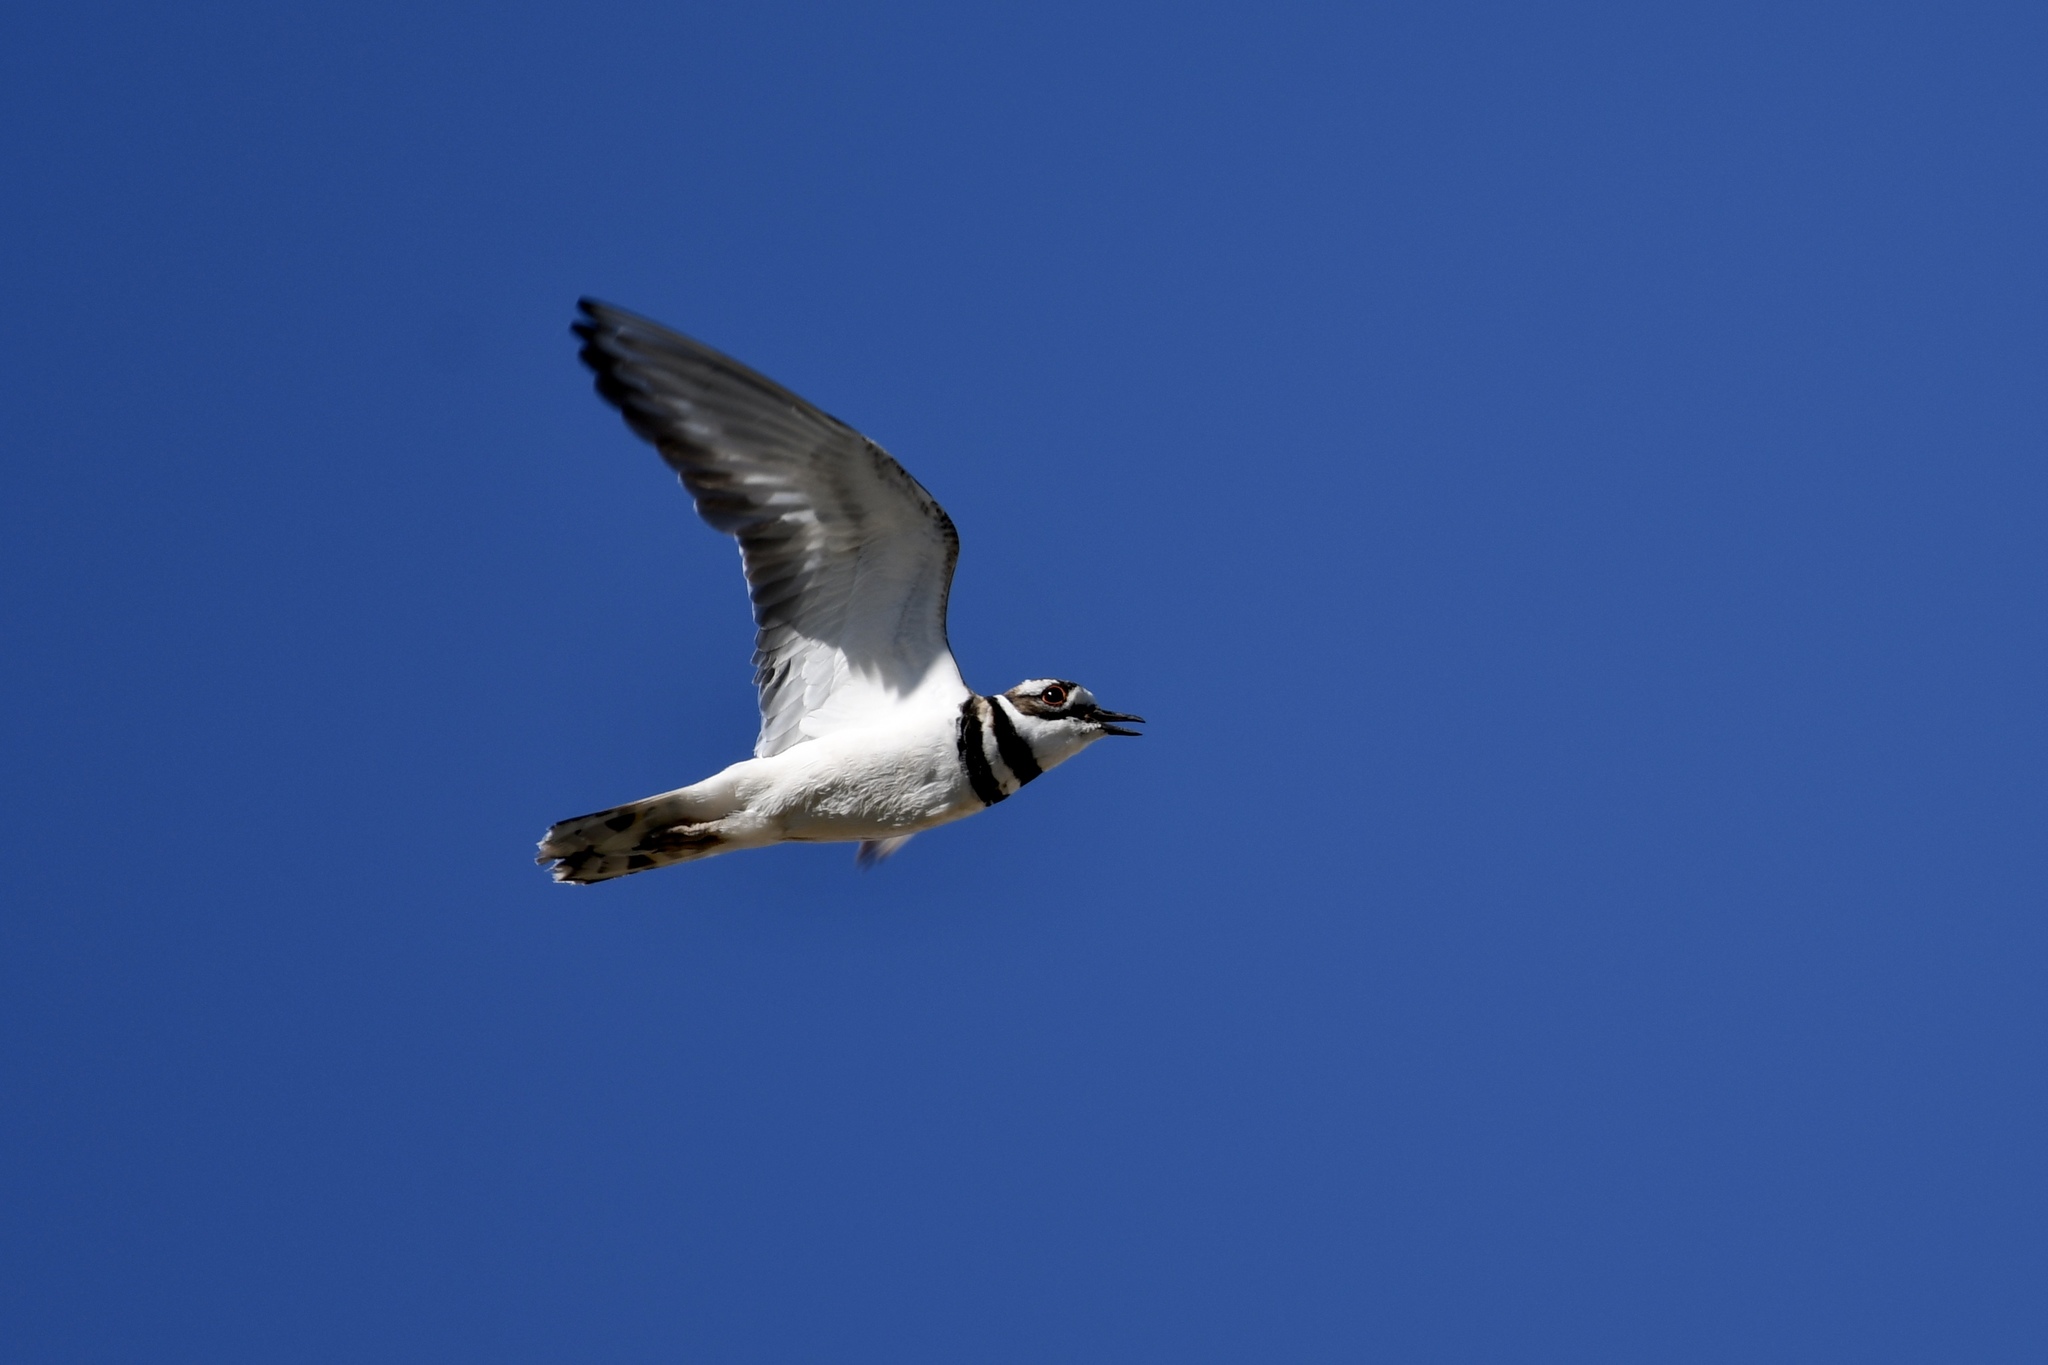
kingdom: Animalia
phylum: Chordata
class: Aves
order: Charadriiformes
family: Charadriidae
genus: Charadrius
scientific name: Charadrius vociferus
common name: Killdeer
